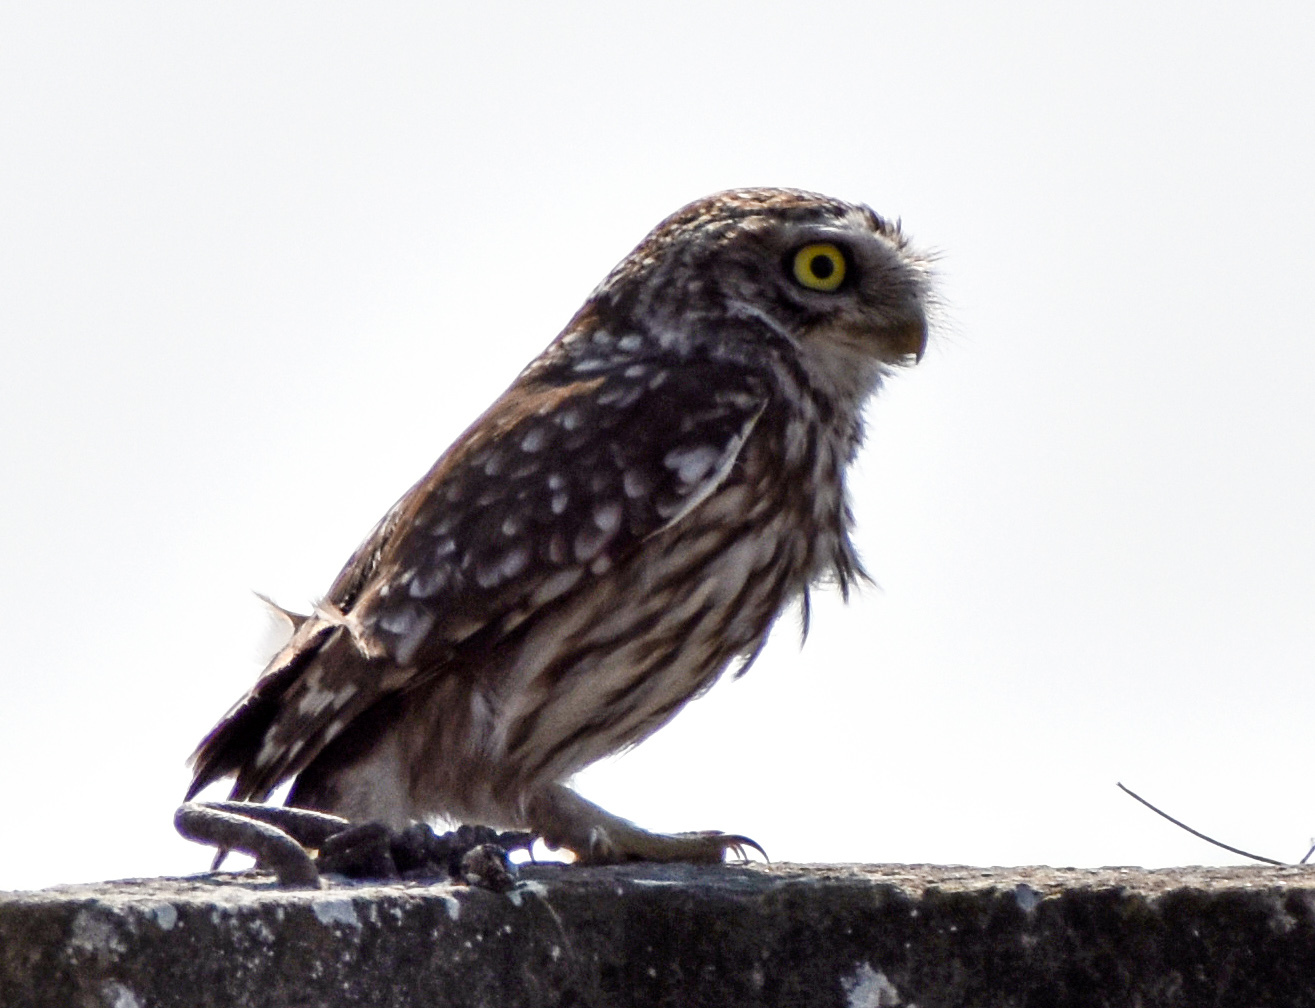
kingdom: Animalia
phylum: Chordata
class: Aves
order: Strigiformes
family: Strigidae
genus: Athene
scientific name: Athene noctua
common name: Little owl
